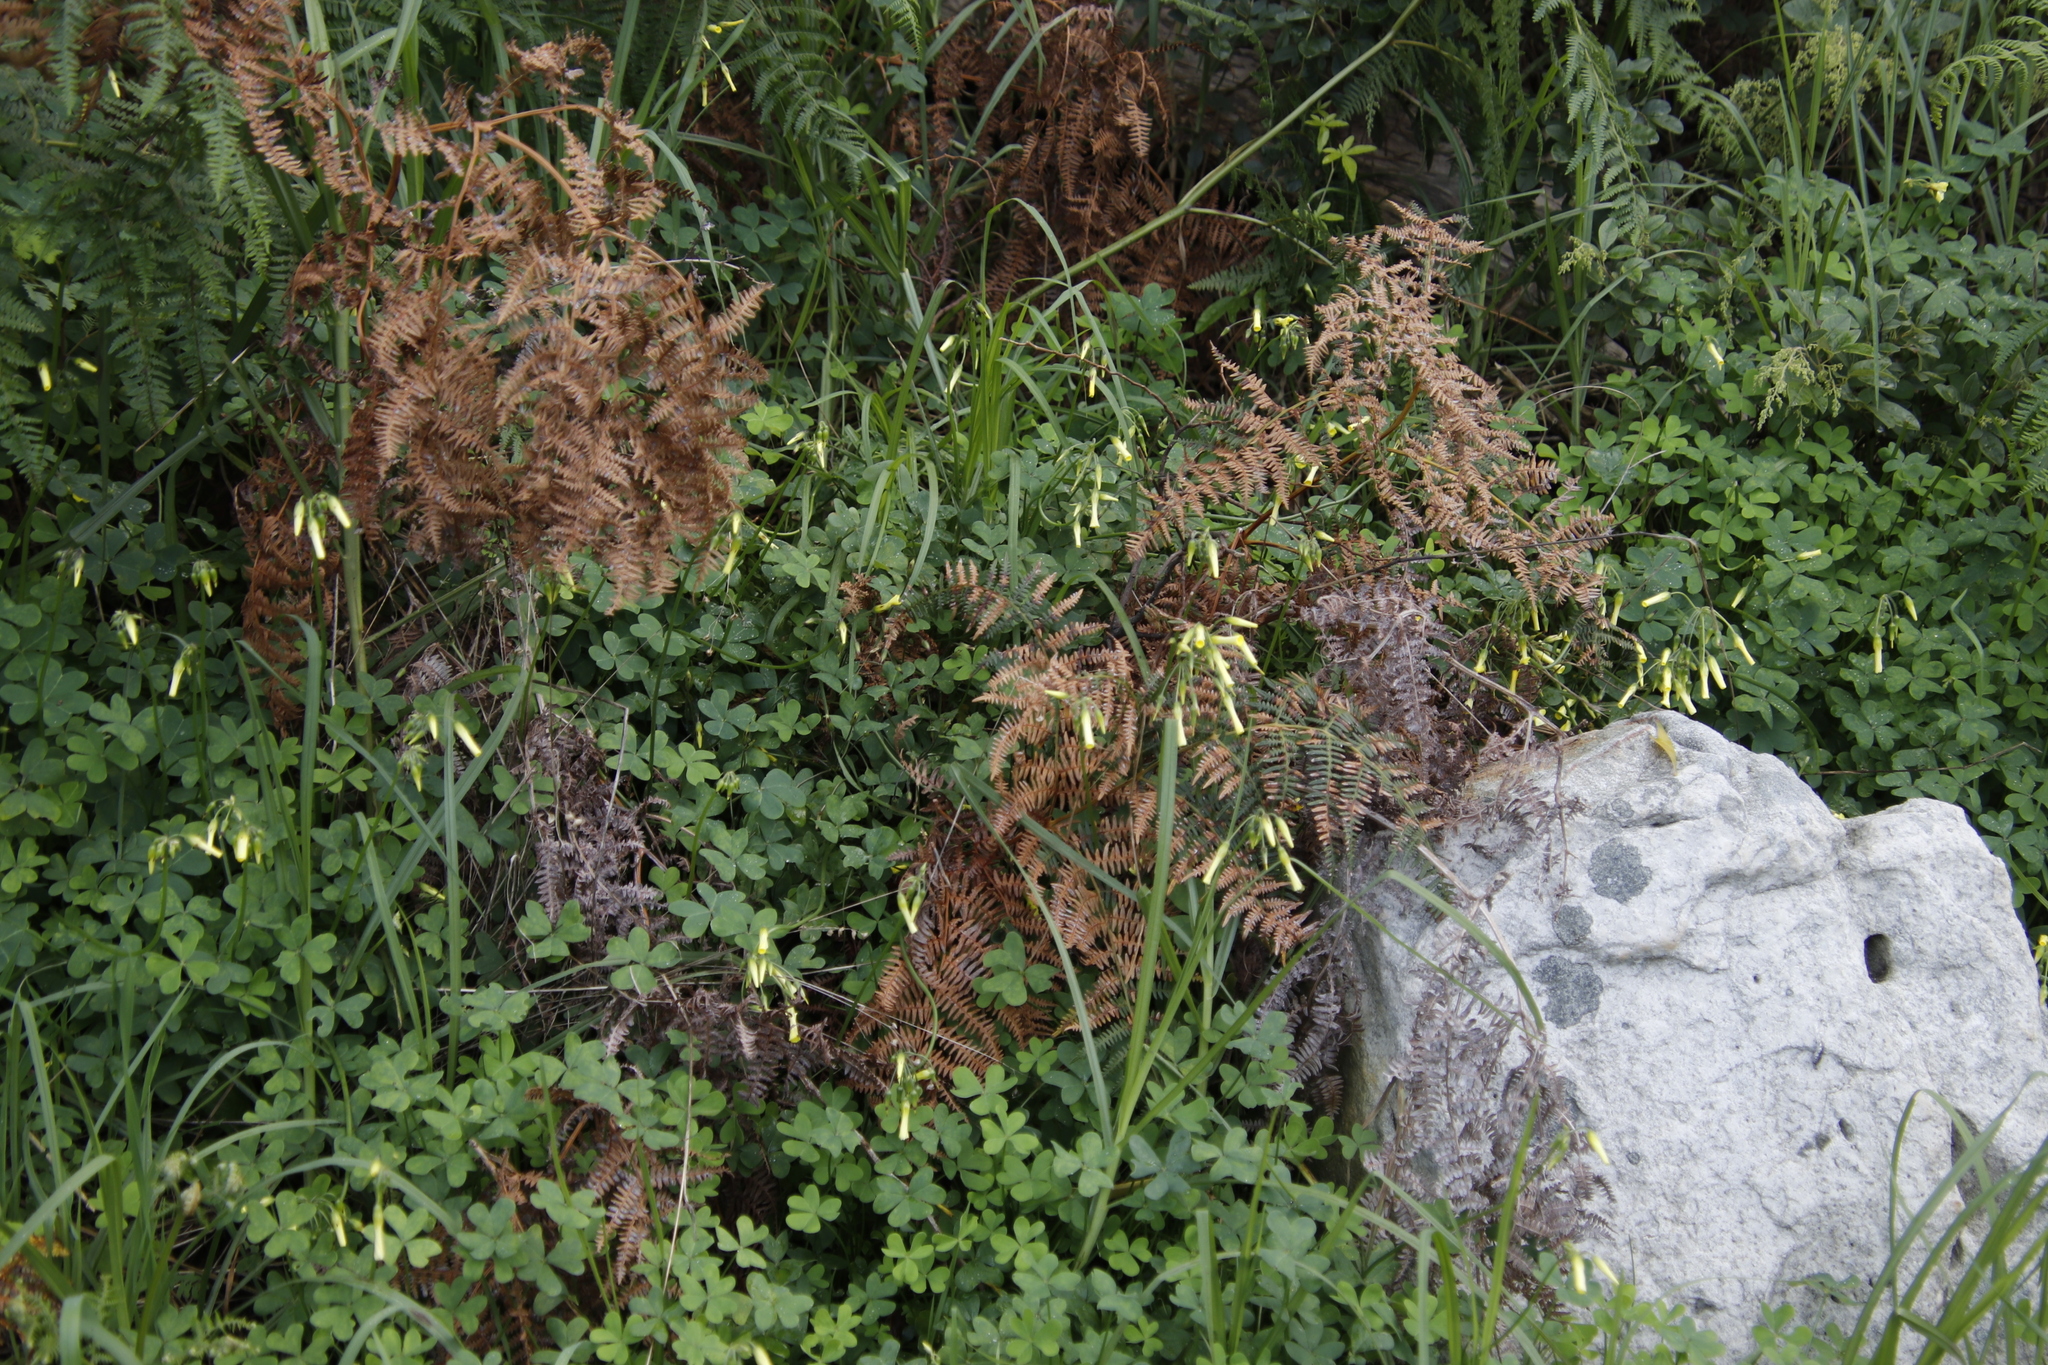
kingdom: Plantae
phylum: Tracheophyta
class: Magnoliopsida
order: Oxalidales
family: Oxalidaceae
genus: Oxalis
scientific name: Oxalis pes-caprae
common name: Bermuda-buttercup
